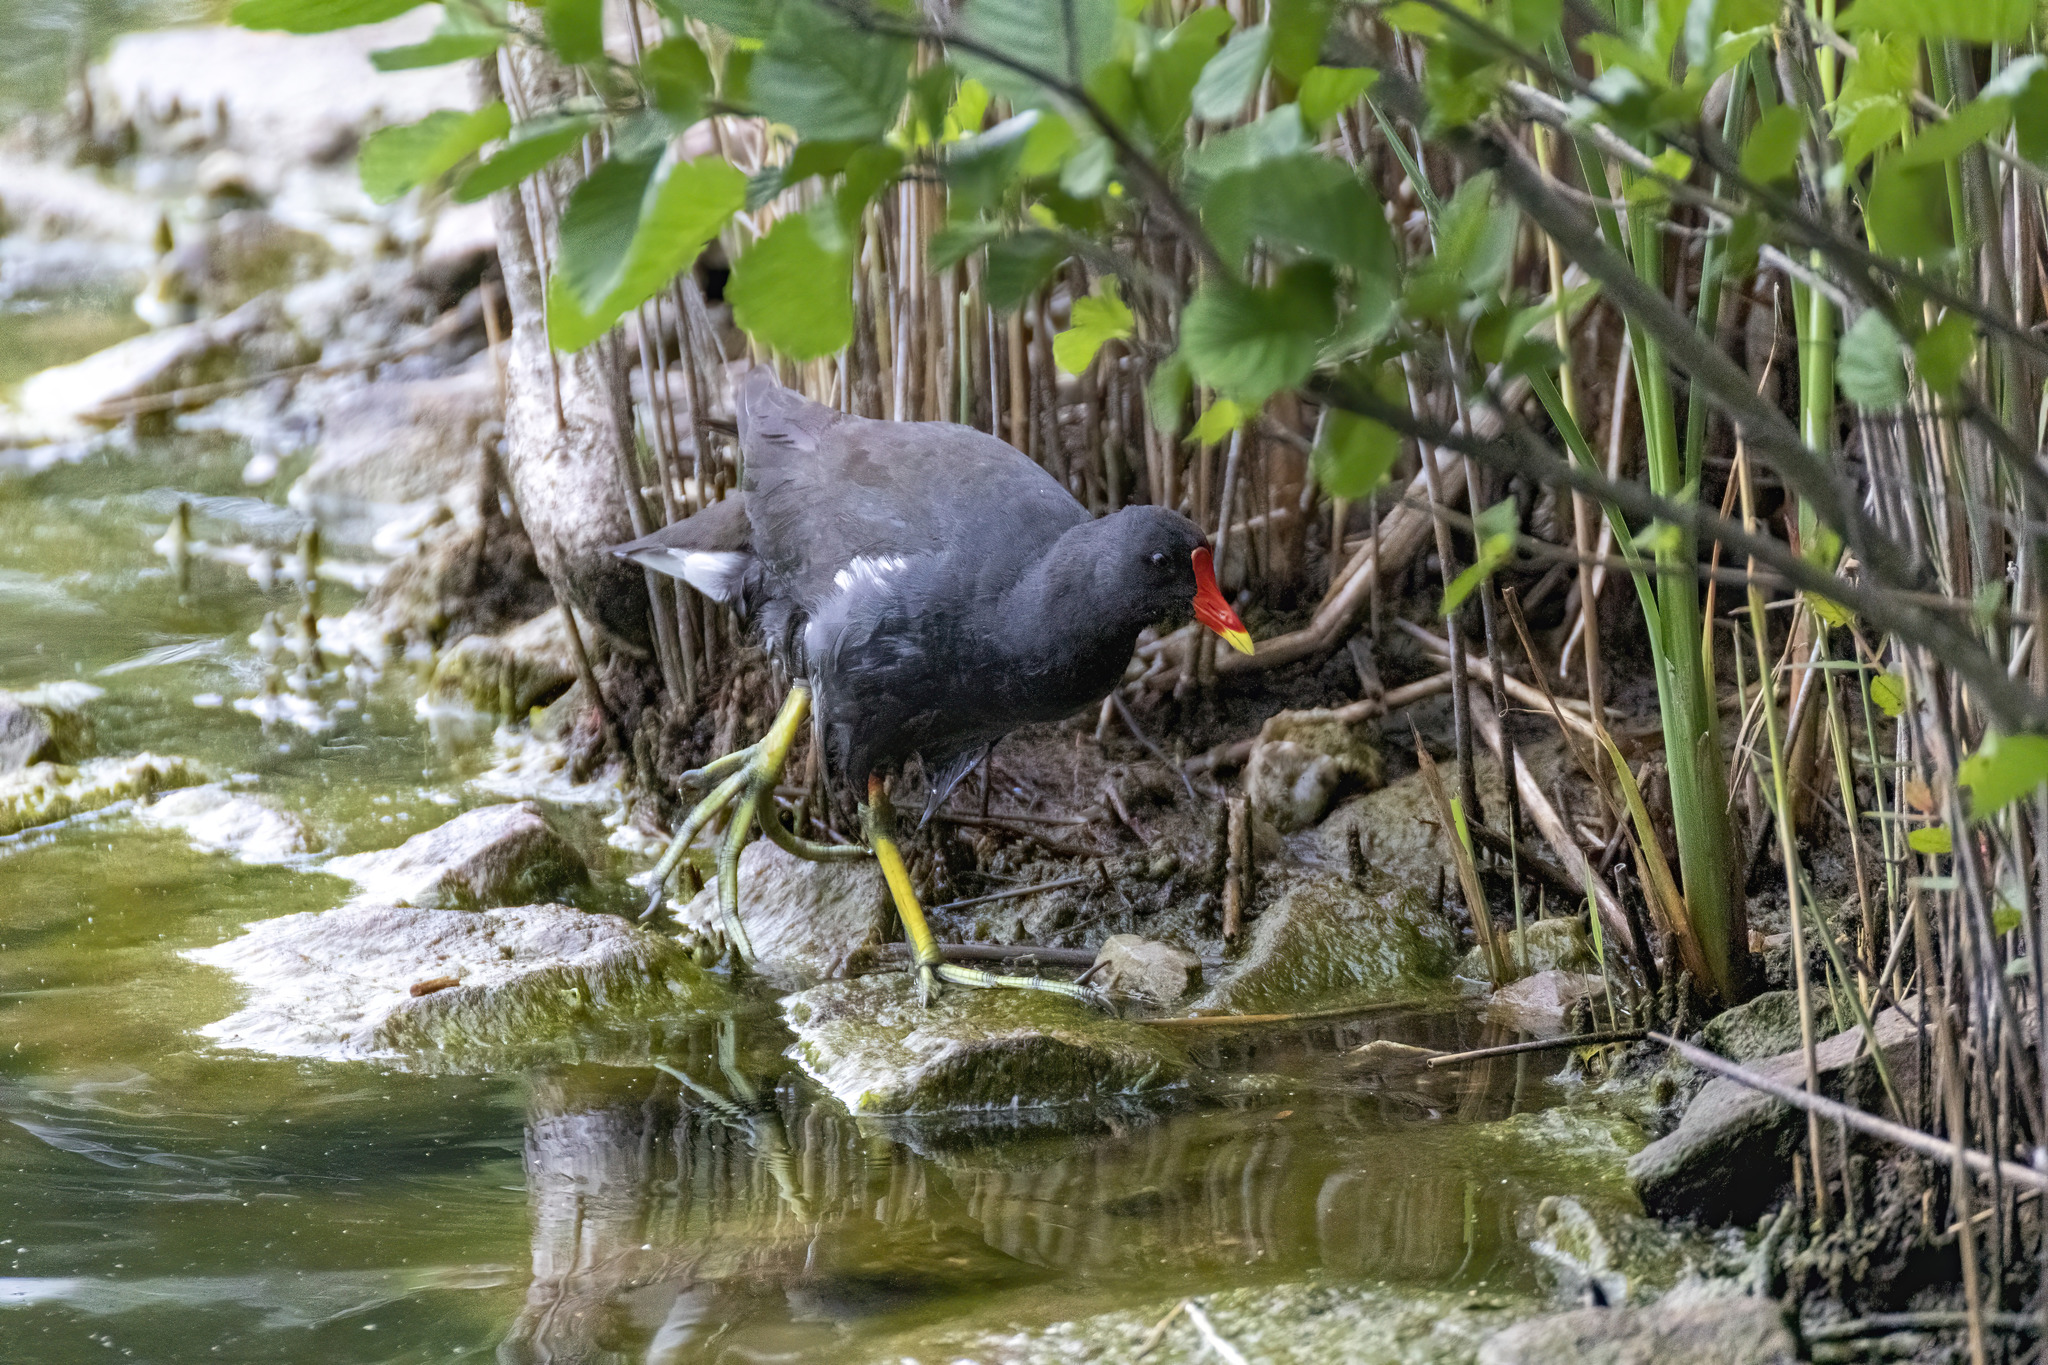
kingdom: Animalia
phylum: Chordata
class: Aves
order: Gruiformes
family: Rallidae
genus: Gallinula
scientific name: Gallinula chloropus
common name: Common moorhen
